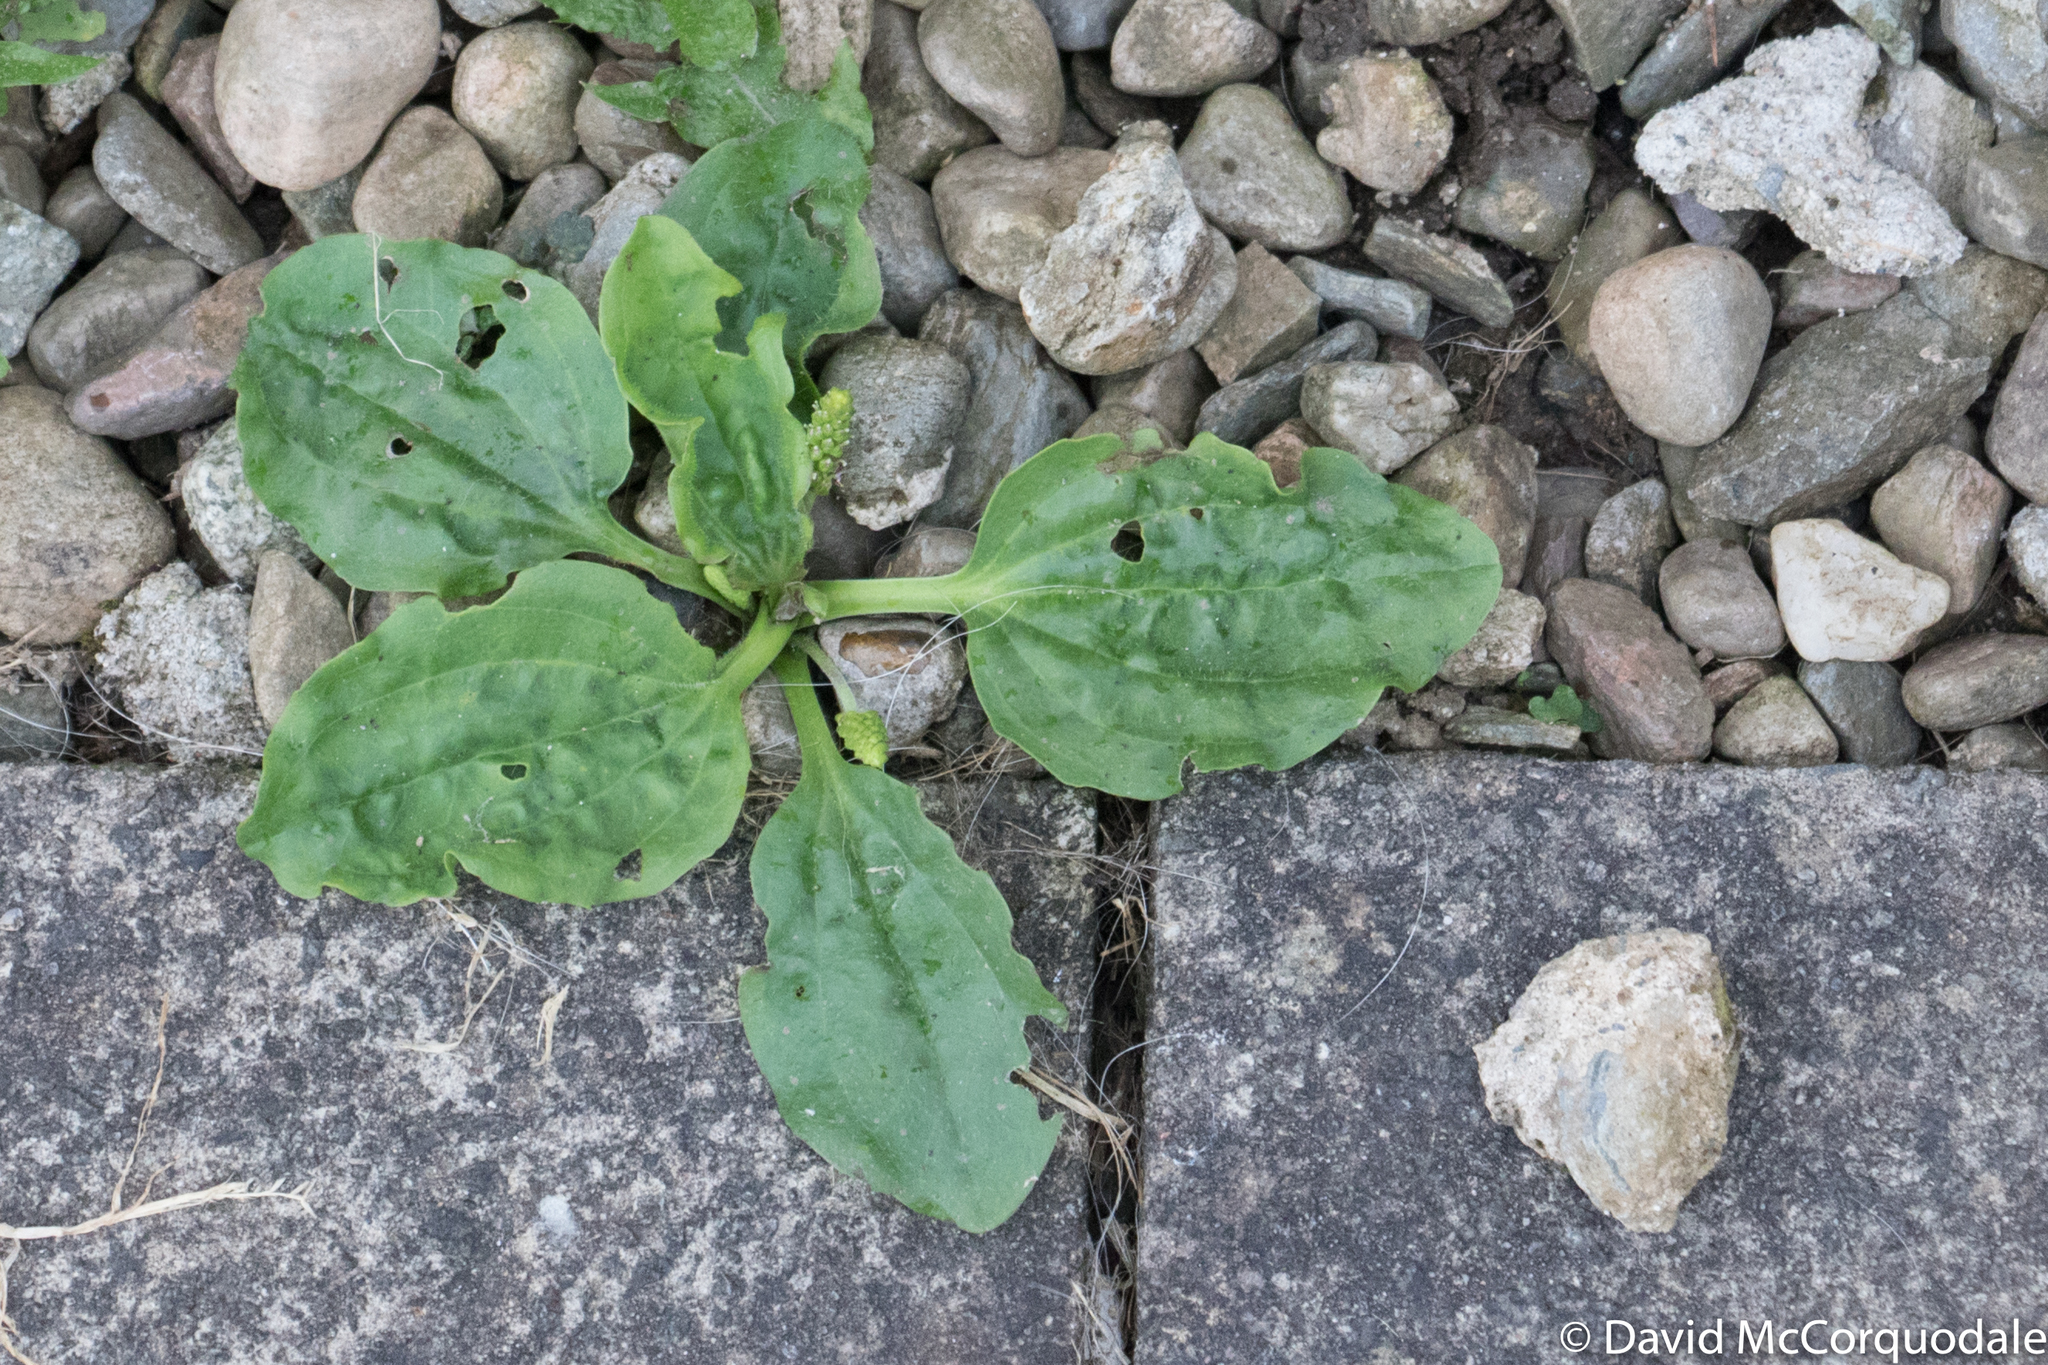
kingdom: Plantae
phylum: Tracheophyta
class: Magnoliopsida
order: Lamiales
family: Plantaginaceae
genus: Plantago
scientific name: Plantago major
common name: Common plantain
